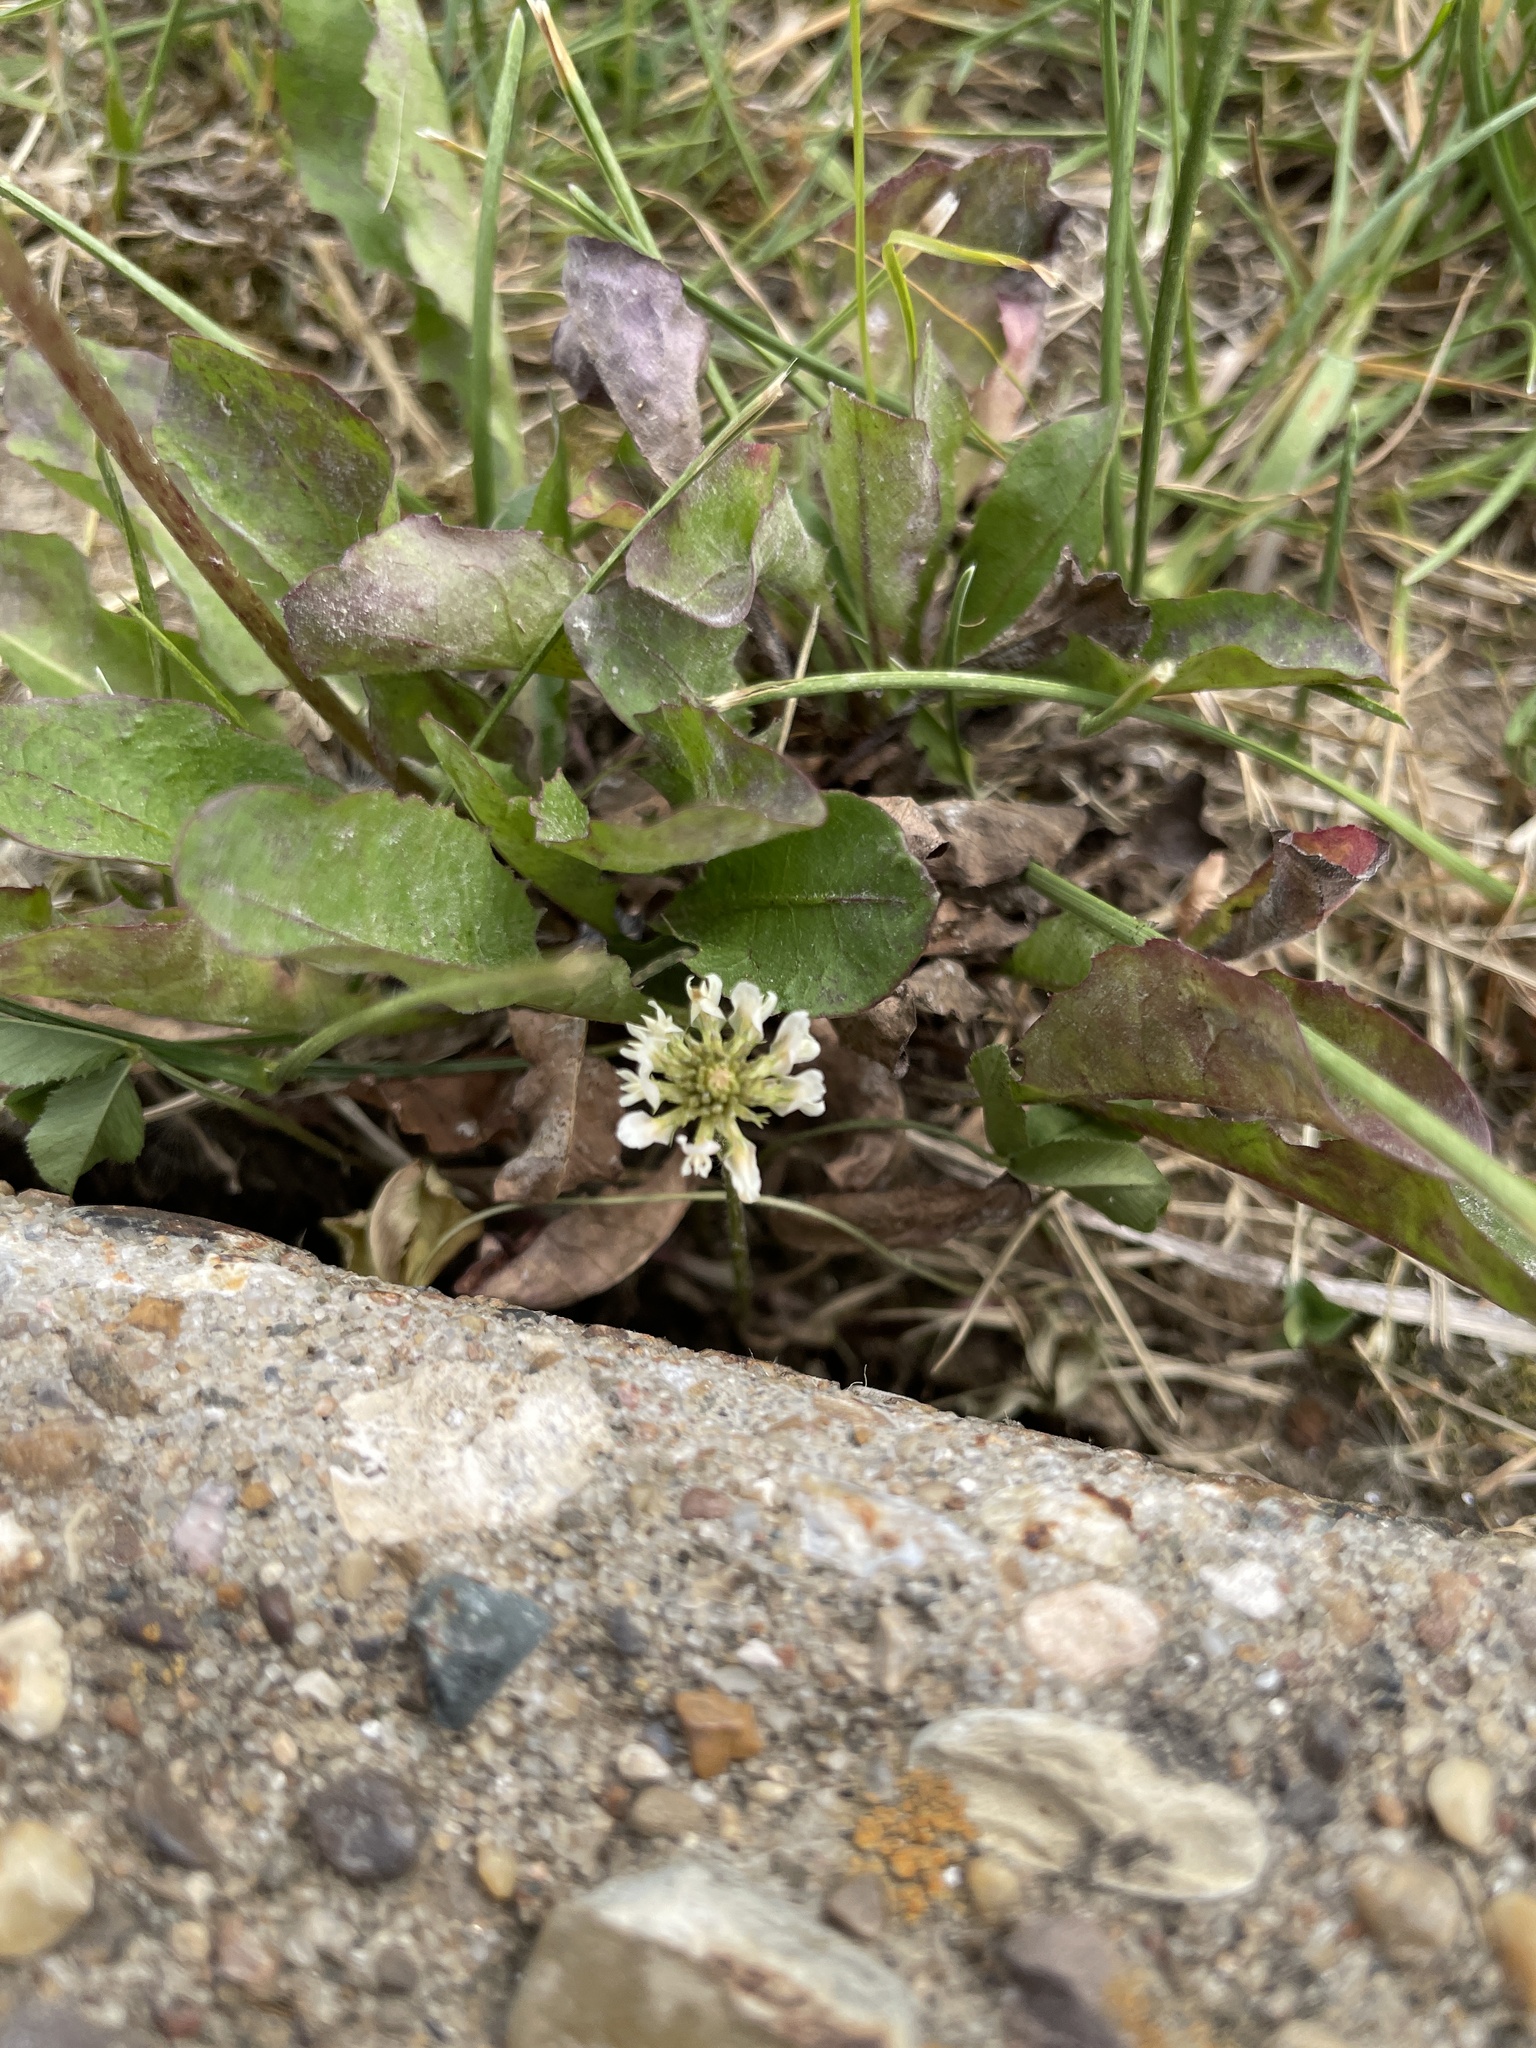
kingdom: Plantae
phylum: Tracheophyta
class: Magnoliopsida
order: Fabales
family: Fabaceae
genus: Trifolium
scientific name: Trifolium repens
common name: White clover
